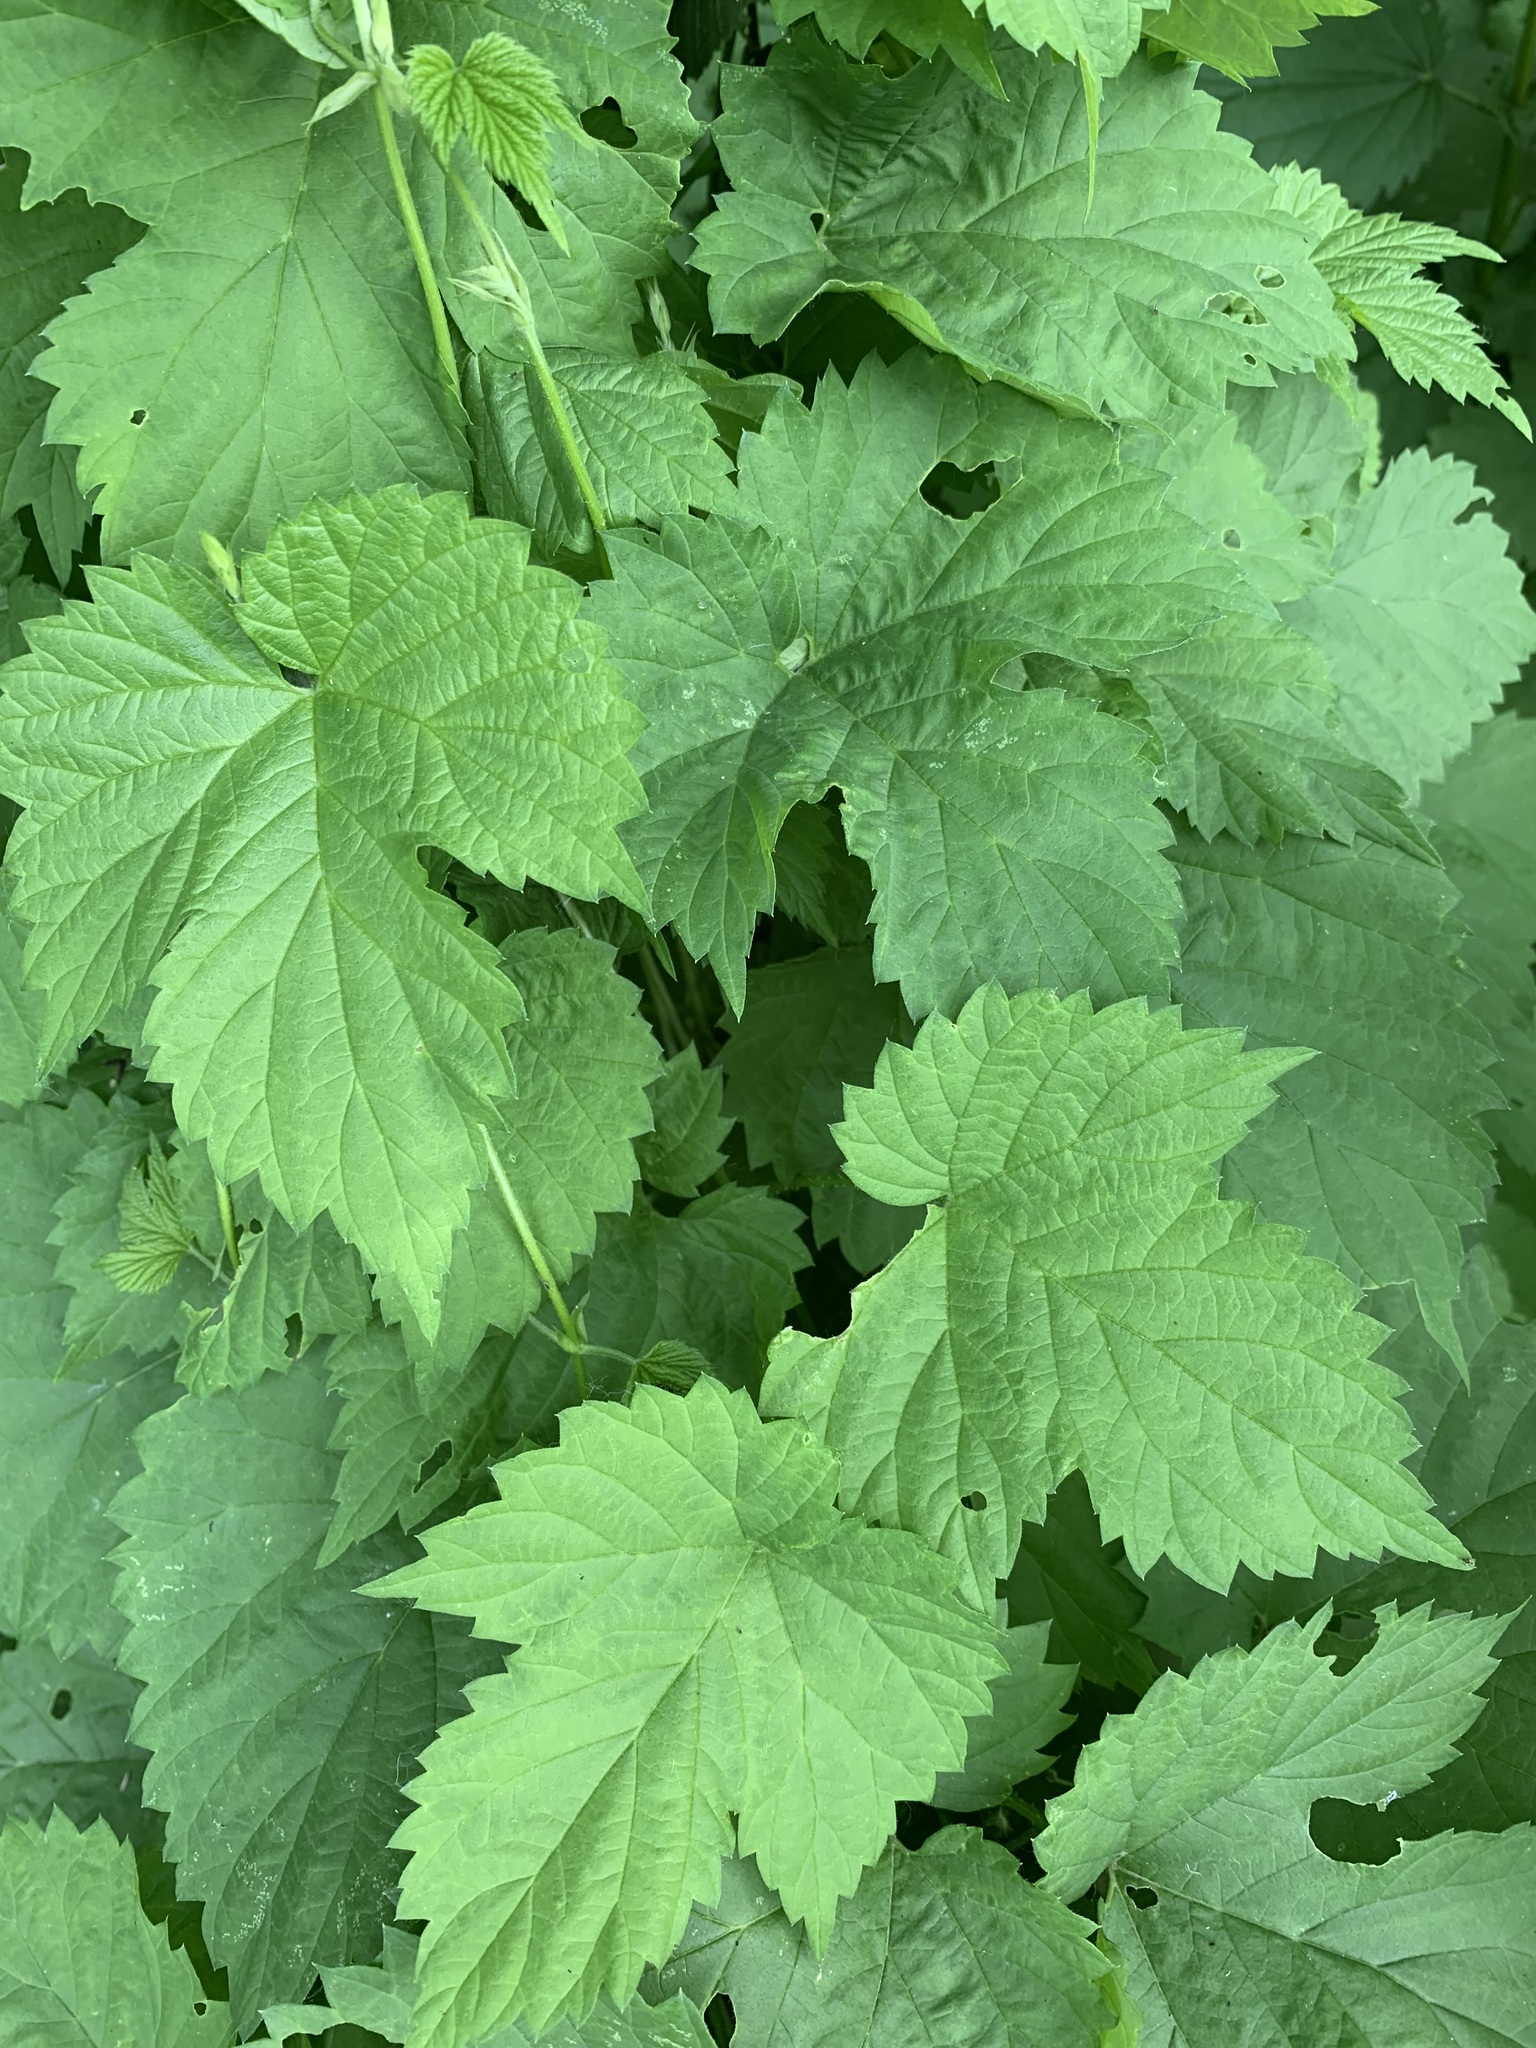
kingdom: Plantae
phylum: Tracheophyta
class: Magnoliopsida
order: Rosales
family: Cannabaceae
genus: Humulus
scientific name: Humulus lupulus
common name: Hop
